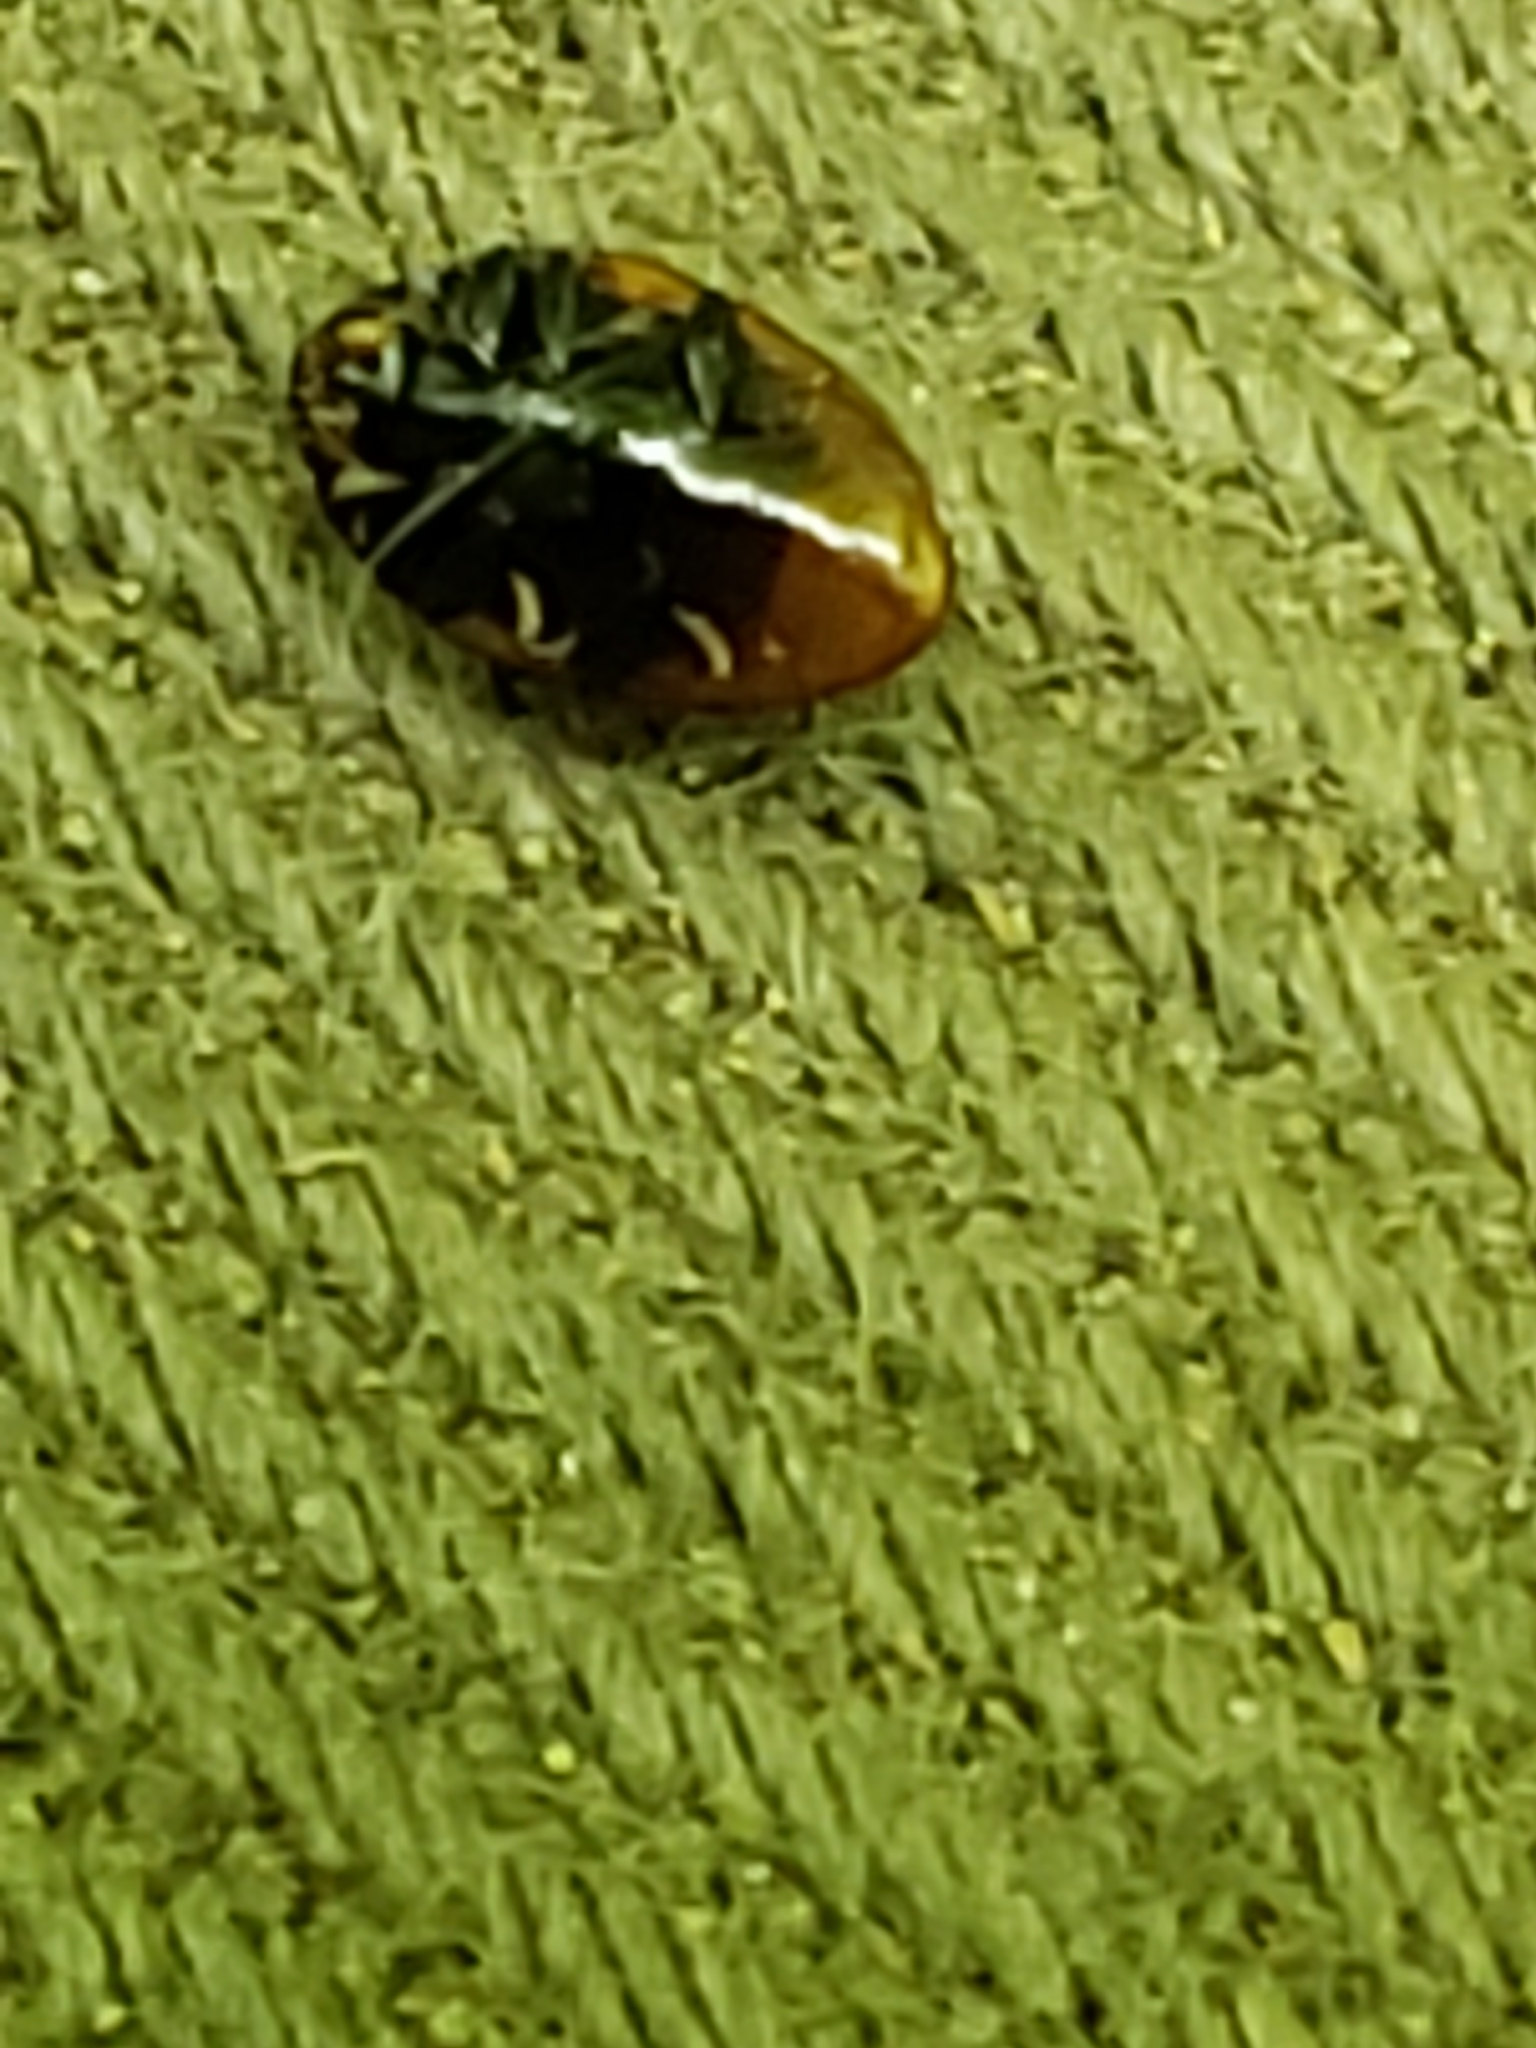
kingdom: Animalia
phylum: Arthropoda
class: Insecta
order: Coleoptera
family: Erotylidae
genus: Tritoma
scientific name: Tritoma sanguinipennis
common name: Red-winged tritoma
